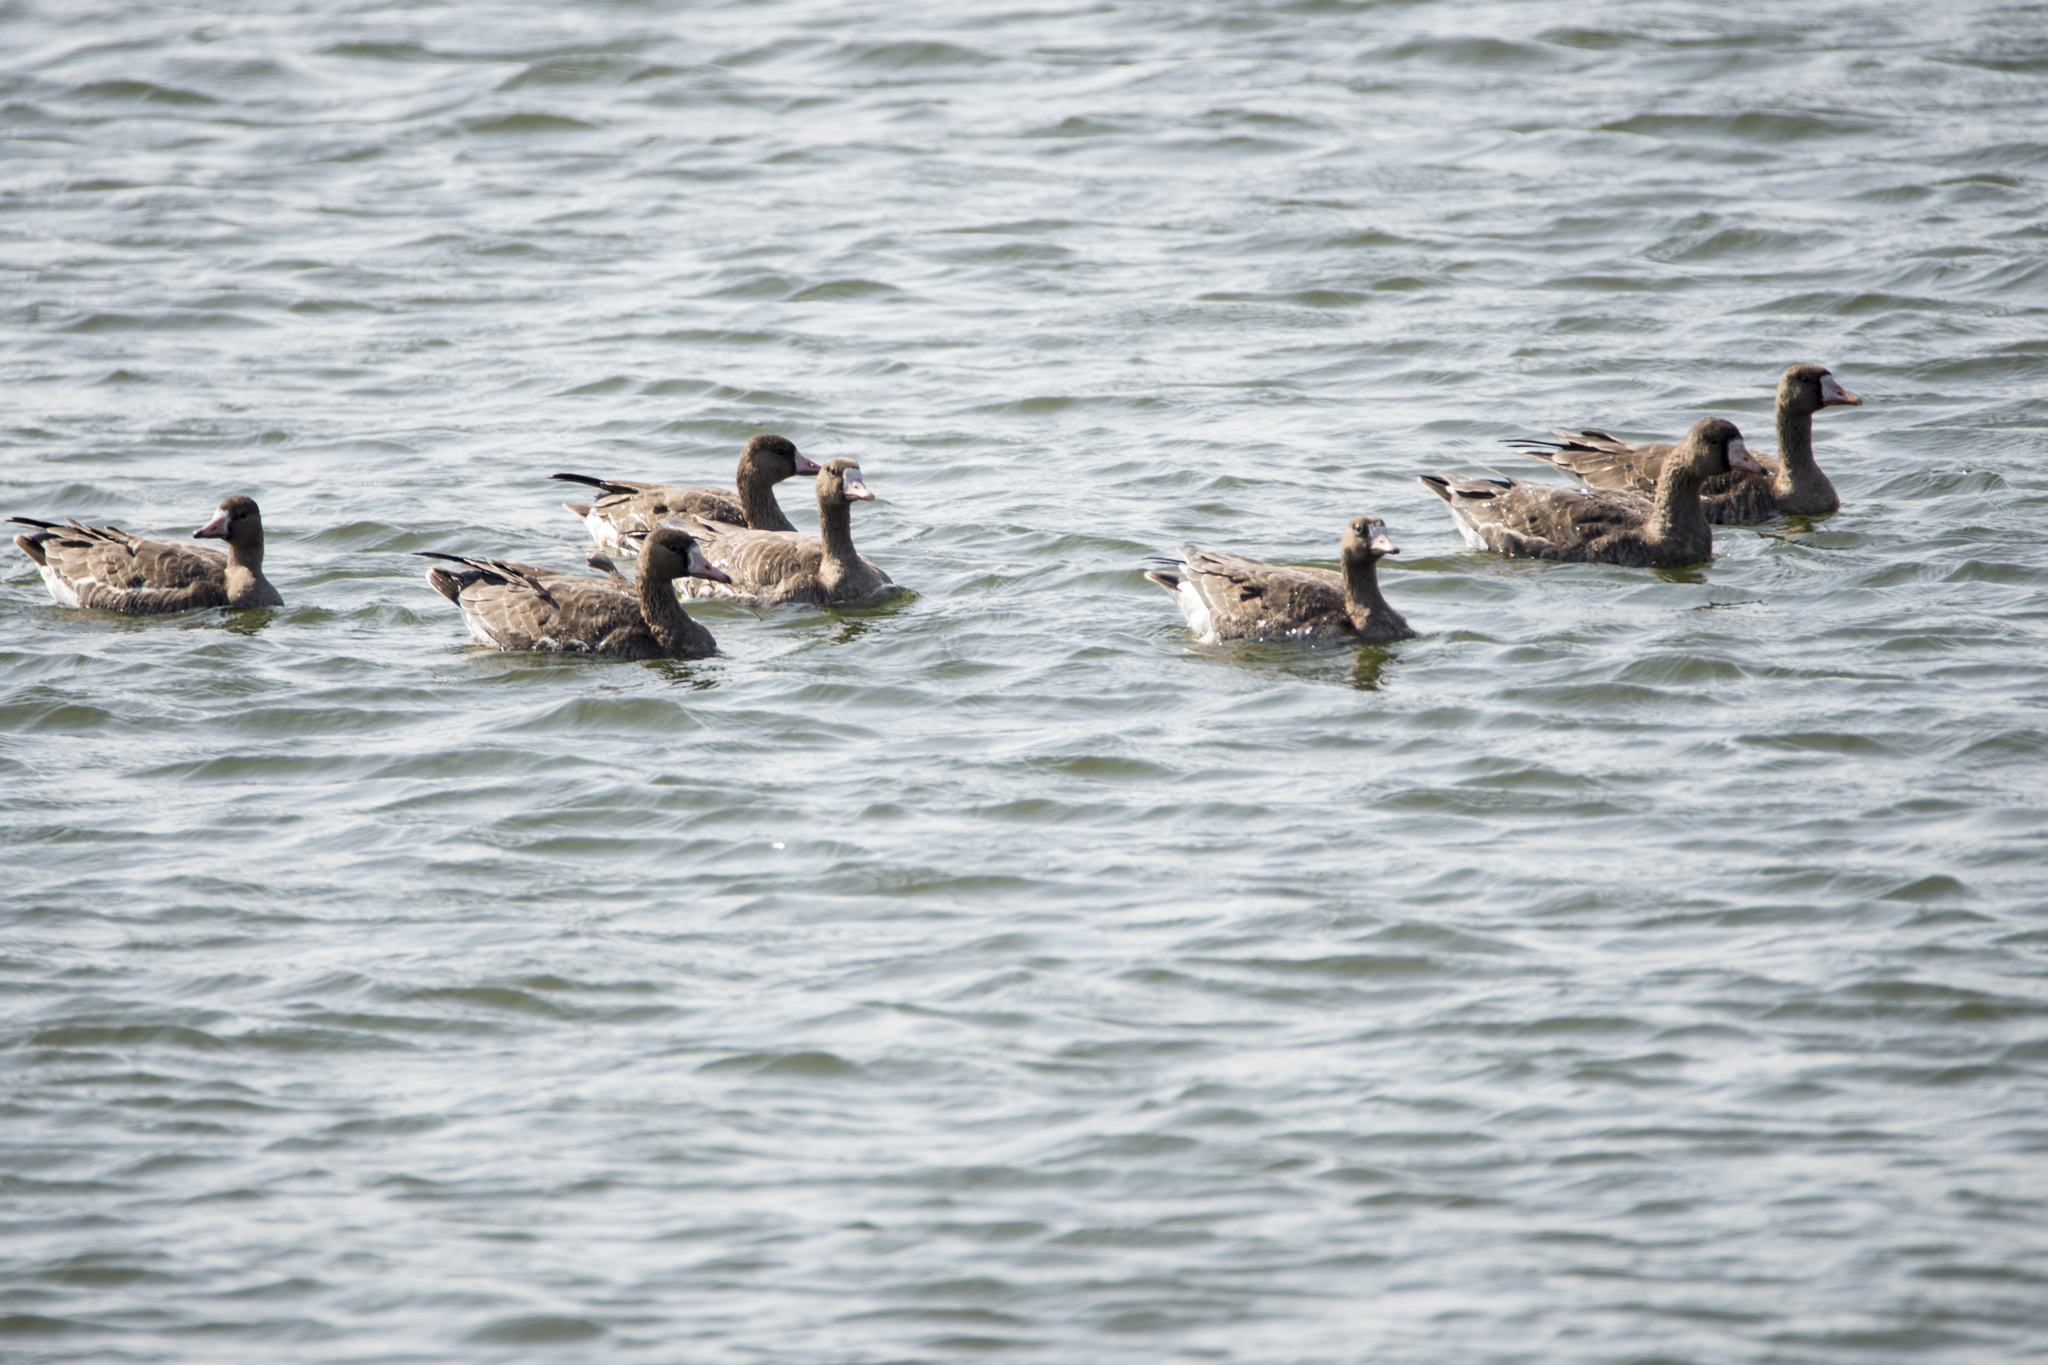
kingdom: Animalia
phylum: Chordata
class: Aves
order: Anseriformes
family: Anatidae
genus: Anser
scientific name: Anser albifrons
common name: Greater white-fronted goose
